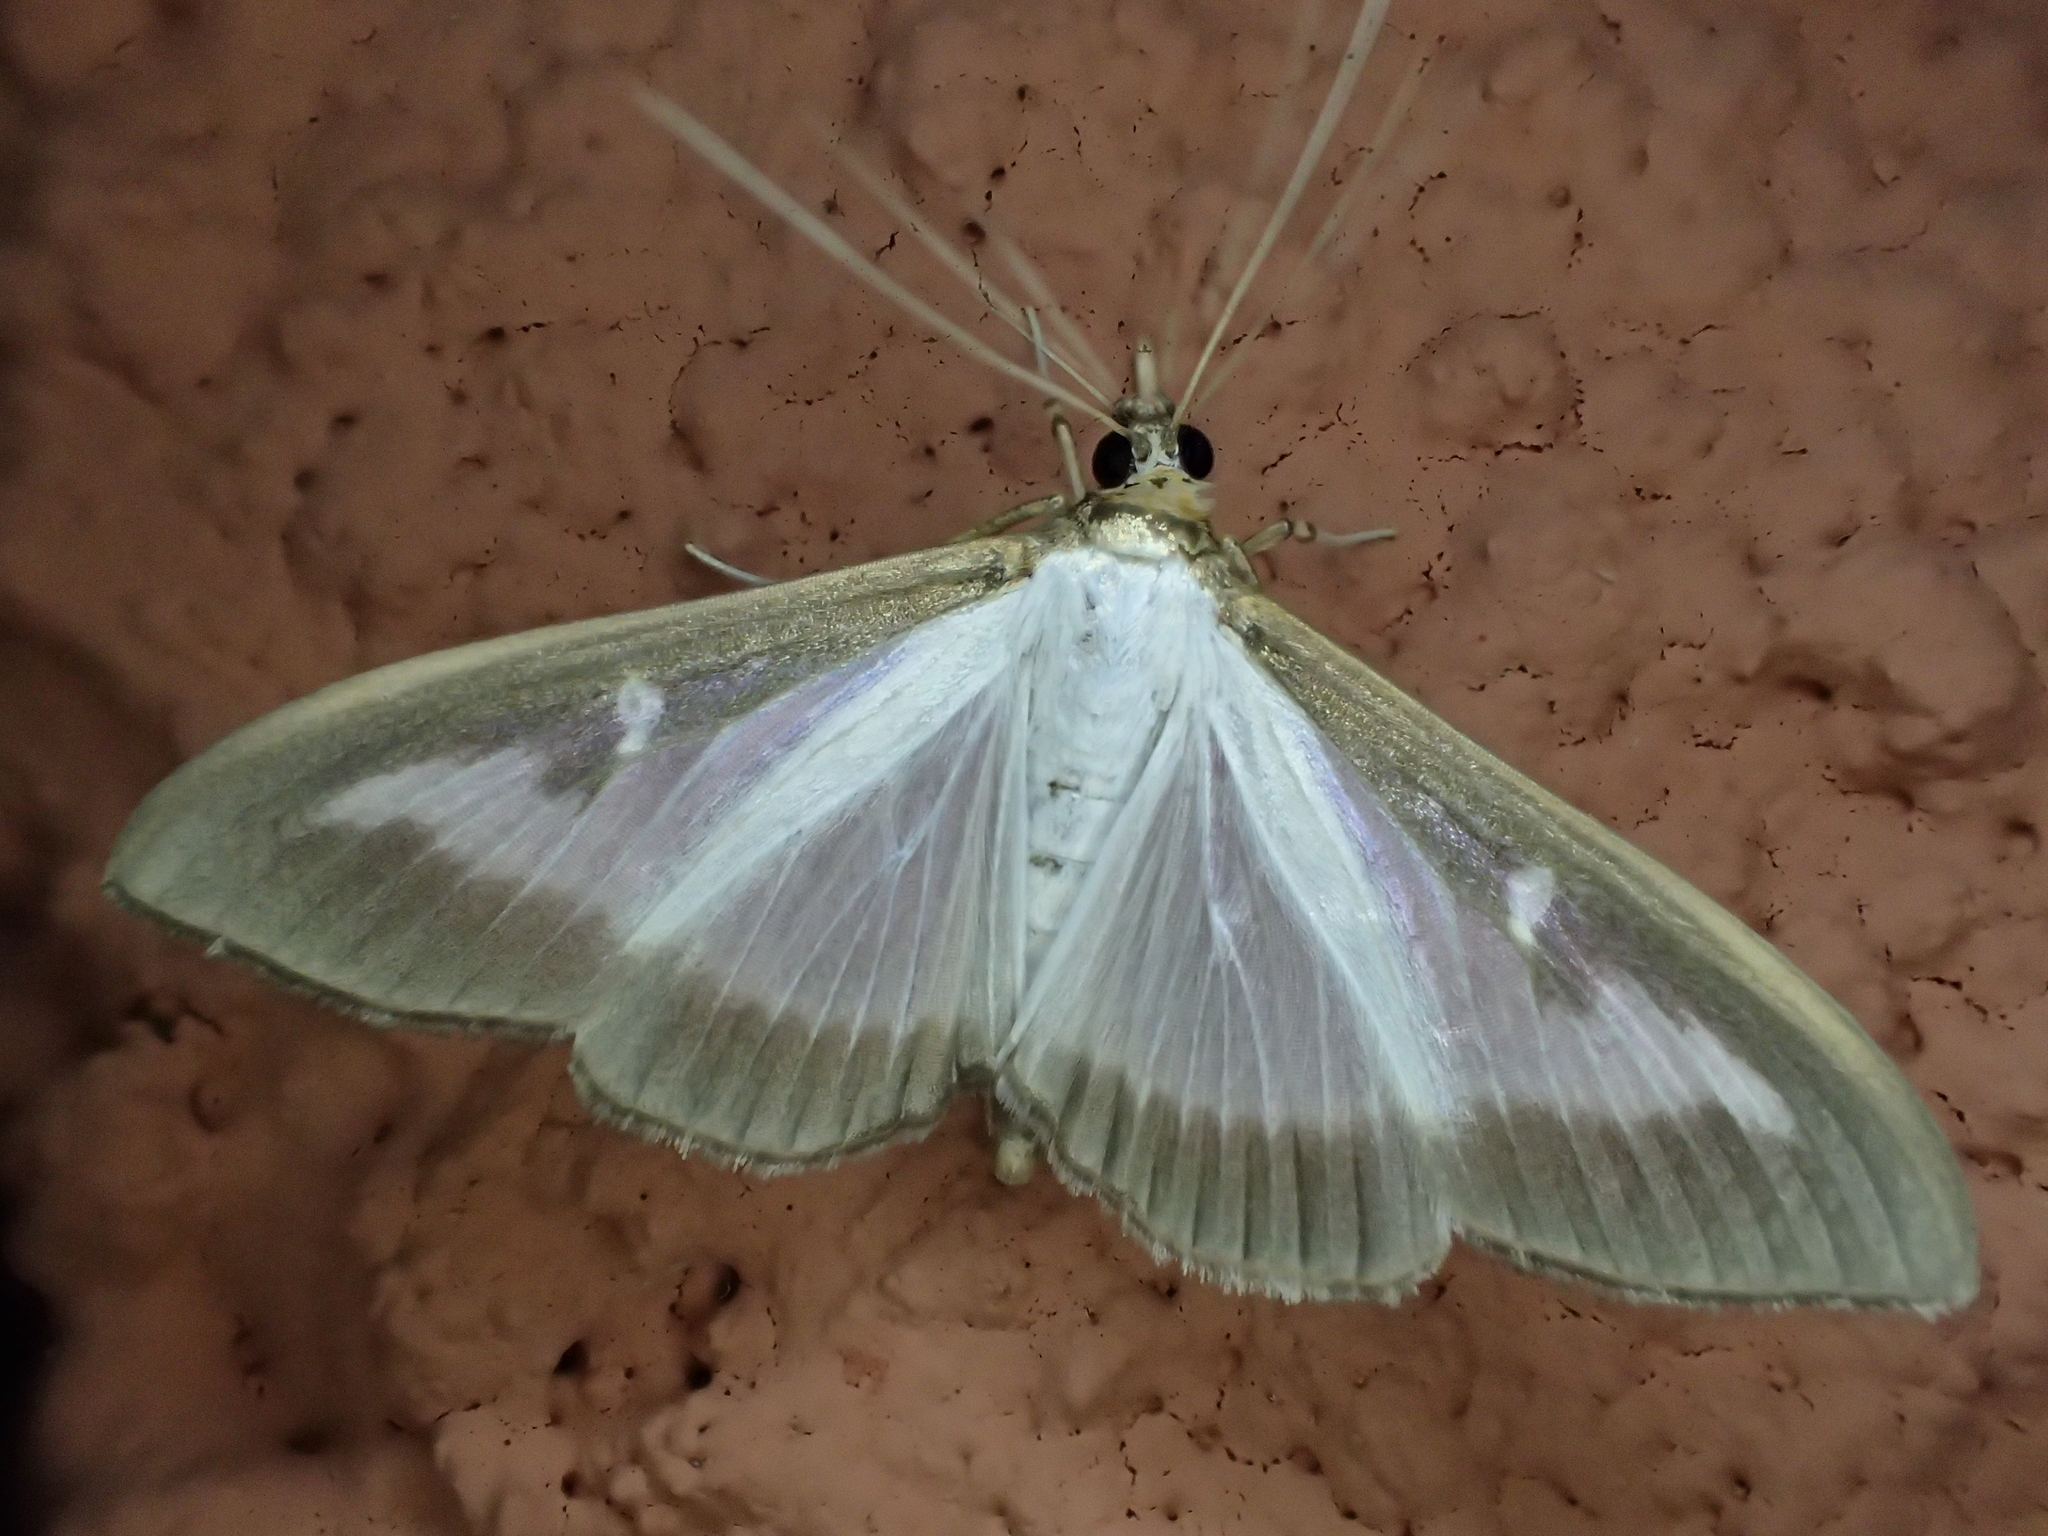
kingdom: Animalia
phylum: Arthropoda
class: Insecta
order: Lepidoptera
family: Crambidae
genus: Cydalima
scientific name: Cydalima perspectalis
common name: Box tree moth
